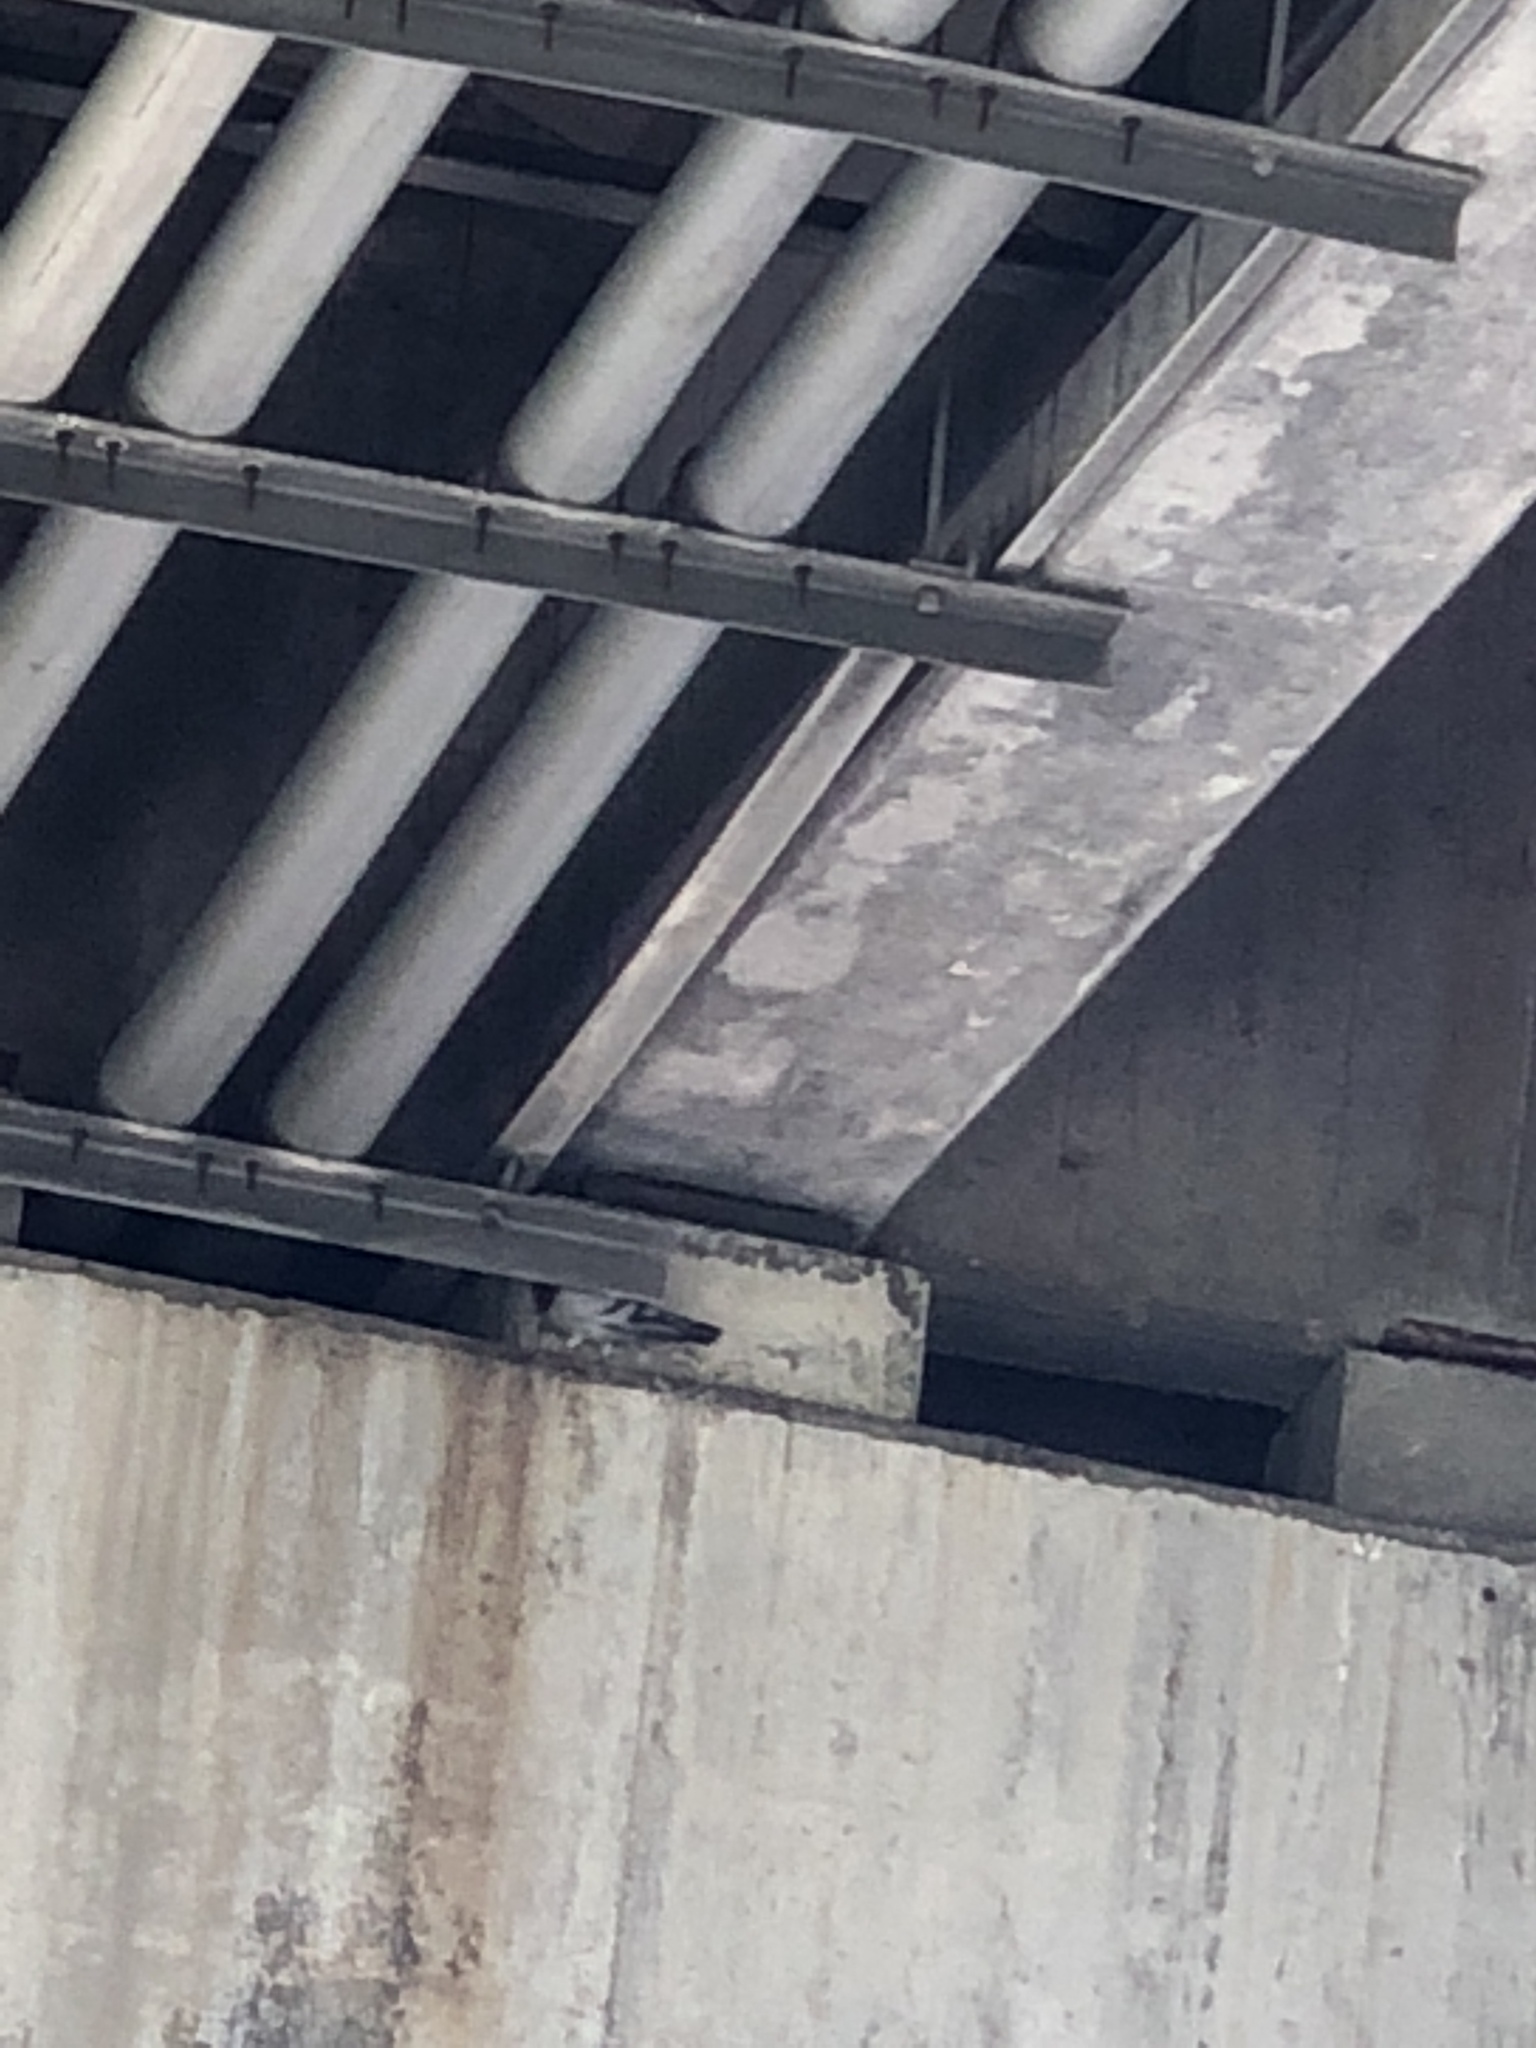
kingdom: Animalia
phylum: Chordata
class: Aves
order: Columbiformes
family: Columbidae
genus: Columba
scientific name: Columba livia
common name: Rock pigeon
